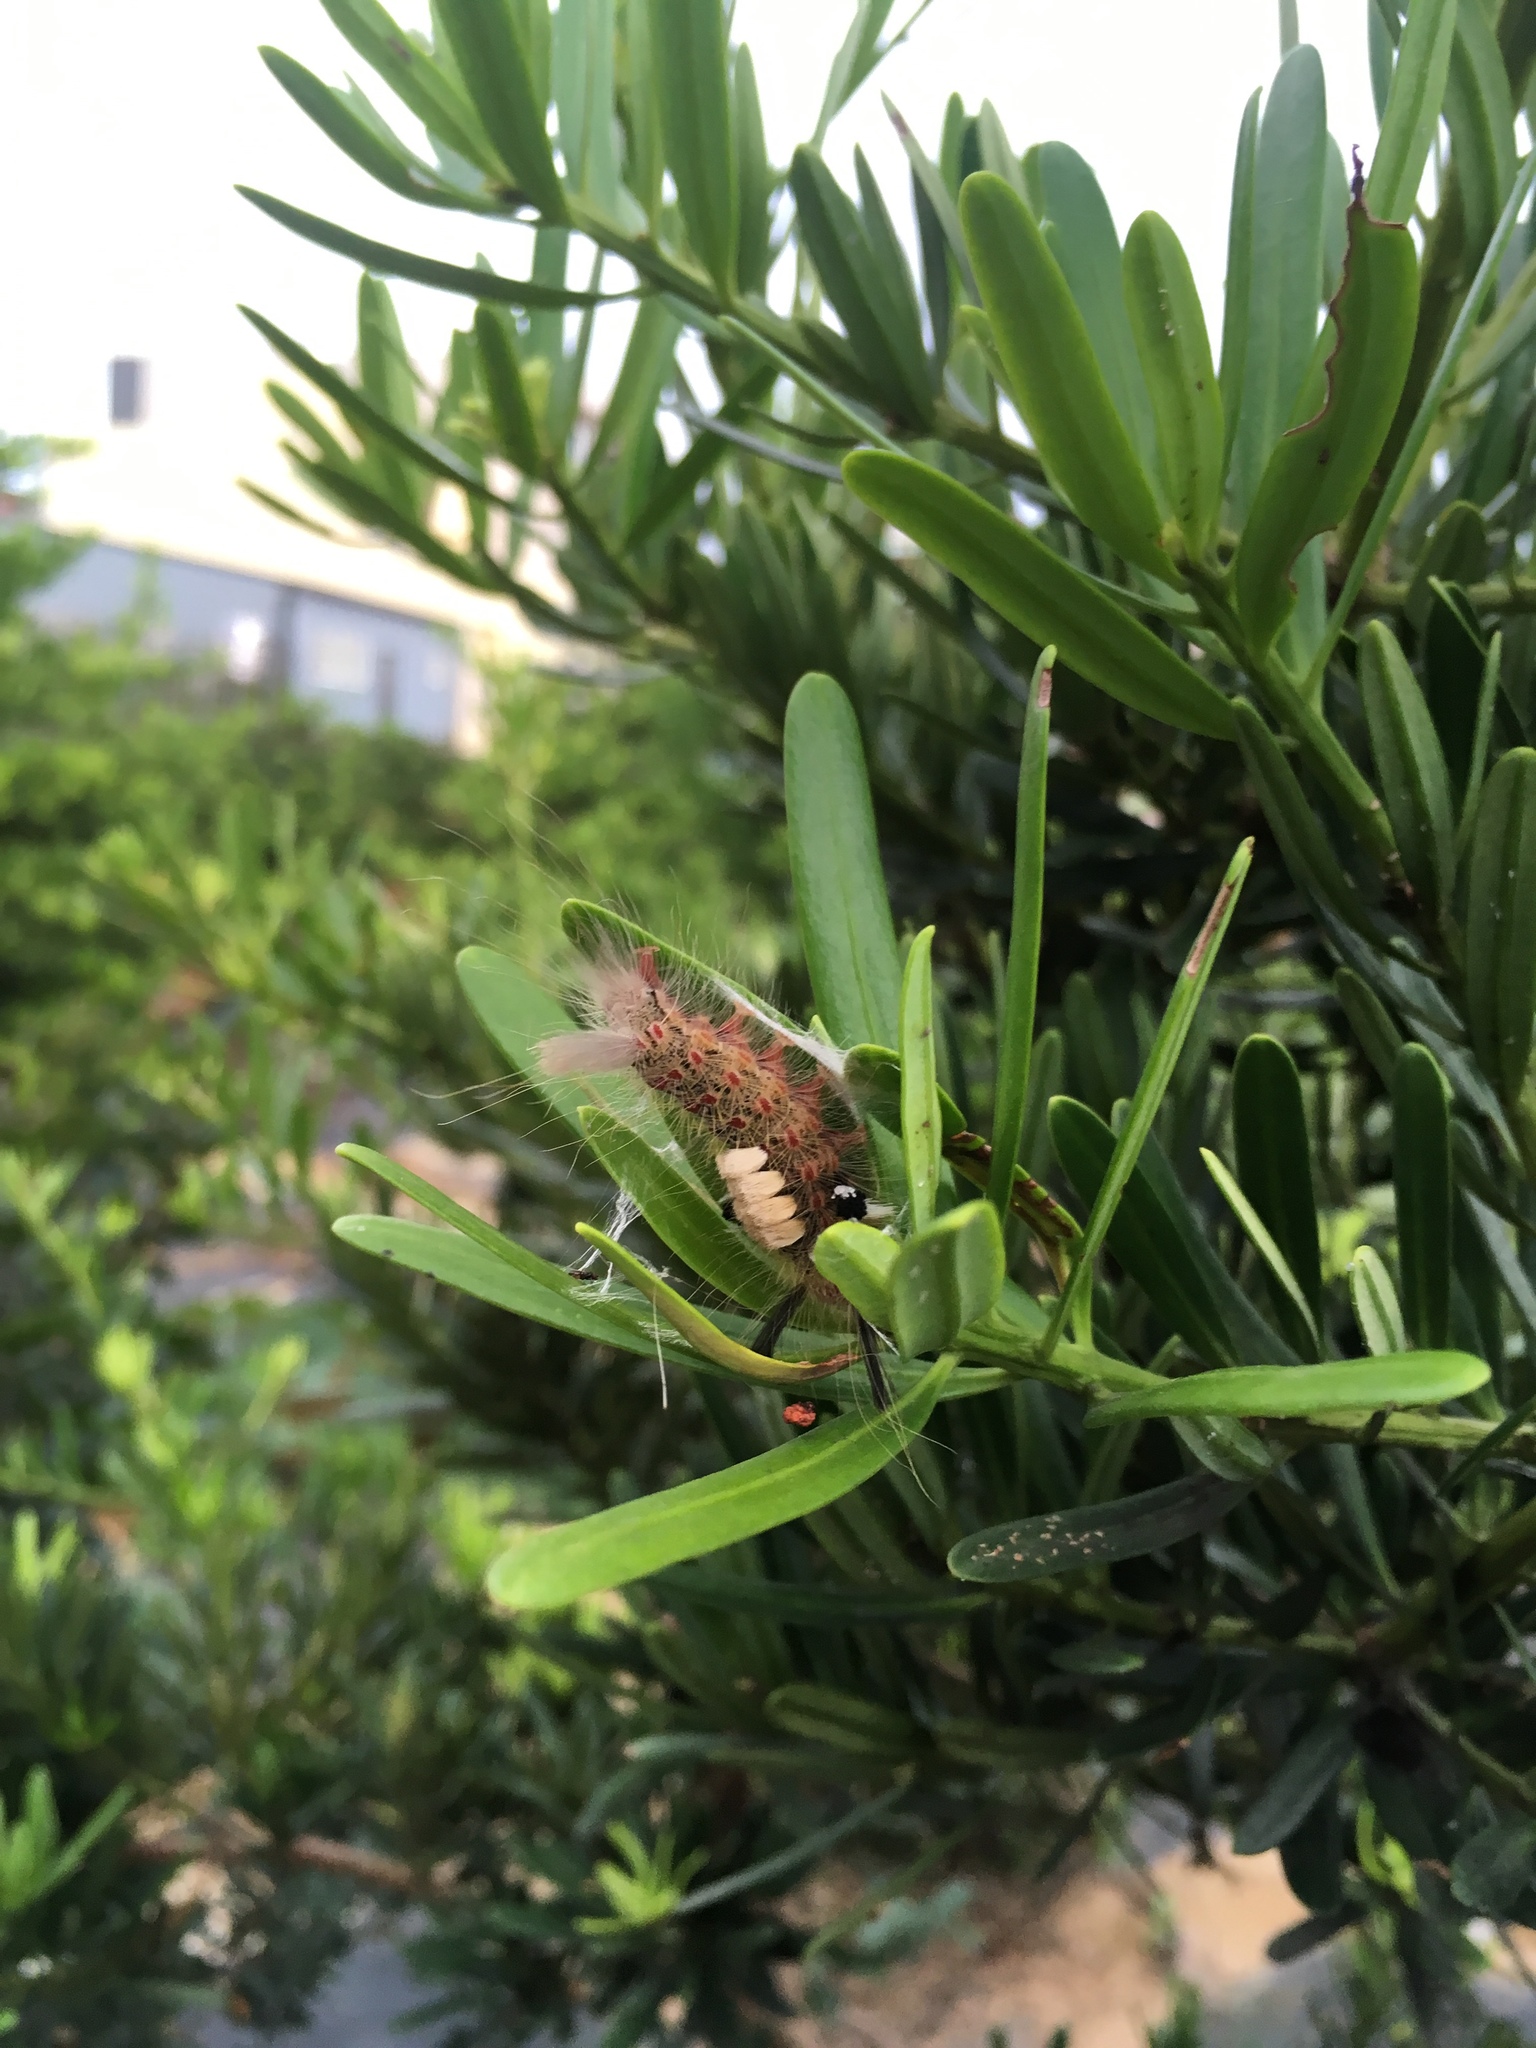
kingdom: Animalia
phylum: Arthropoda
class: Insecta
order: Lepidoptera
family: Erebidae
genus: Olene
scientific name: Olene mendosa
